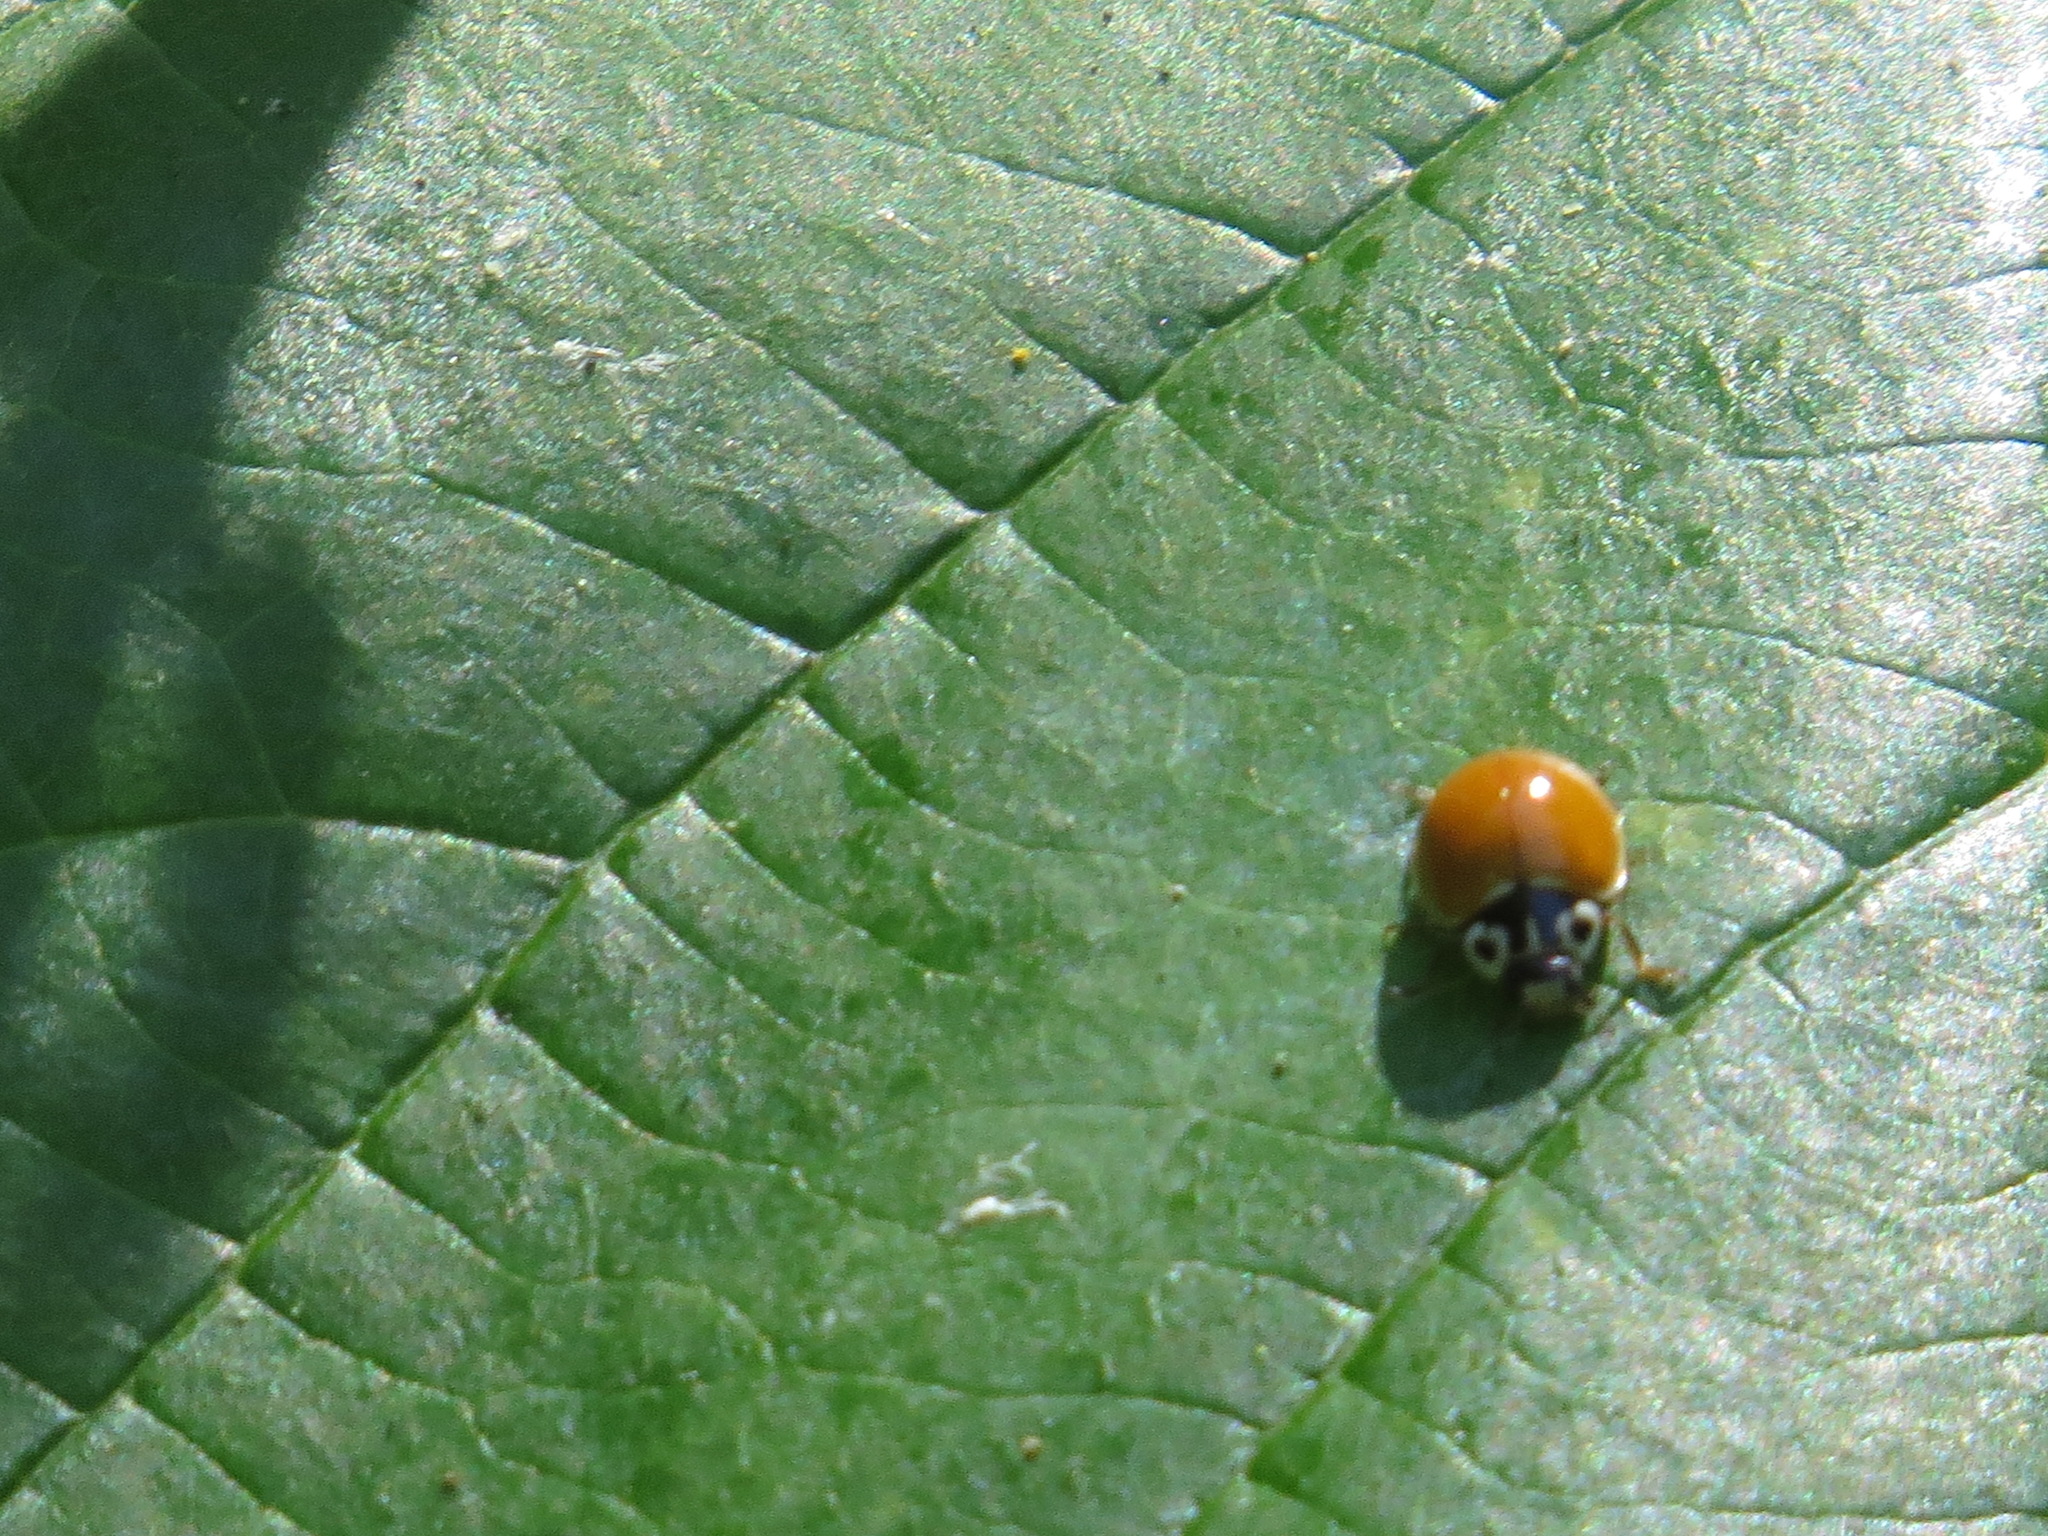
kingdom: Animalia
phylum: Arthropoda
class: Insecta
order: Coleoptera
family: Coccinellidae
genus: Cycloneda
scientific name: Cycloneda polita
